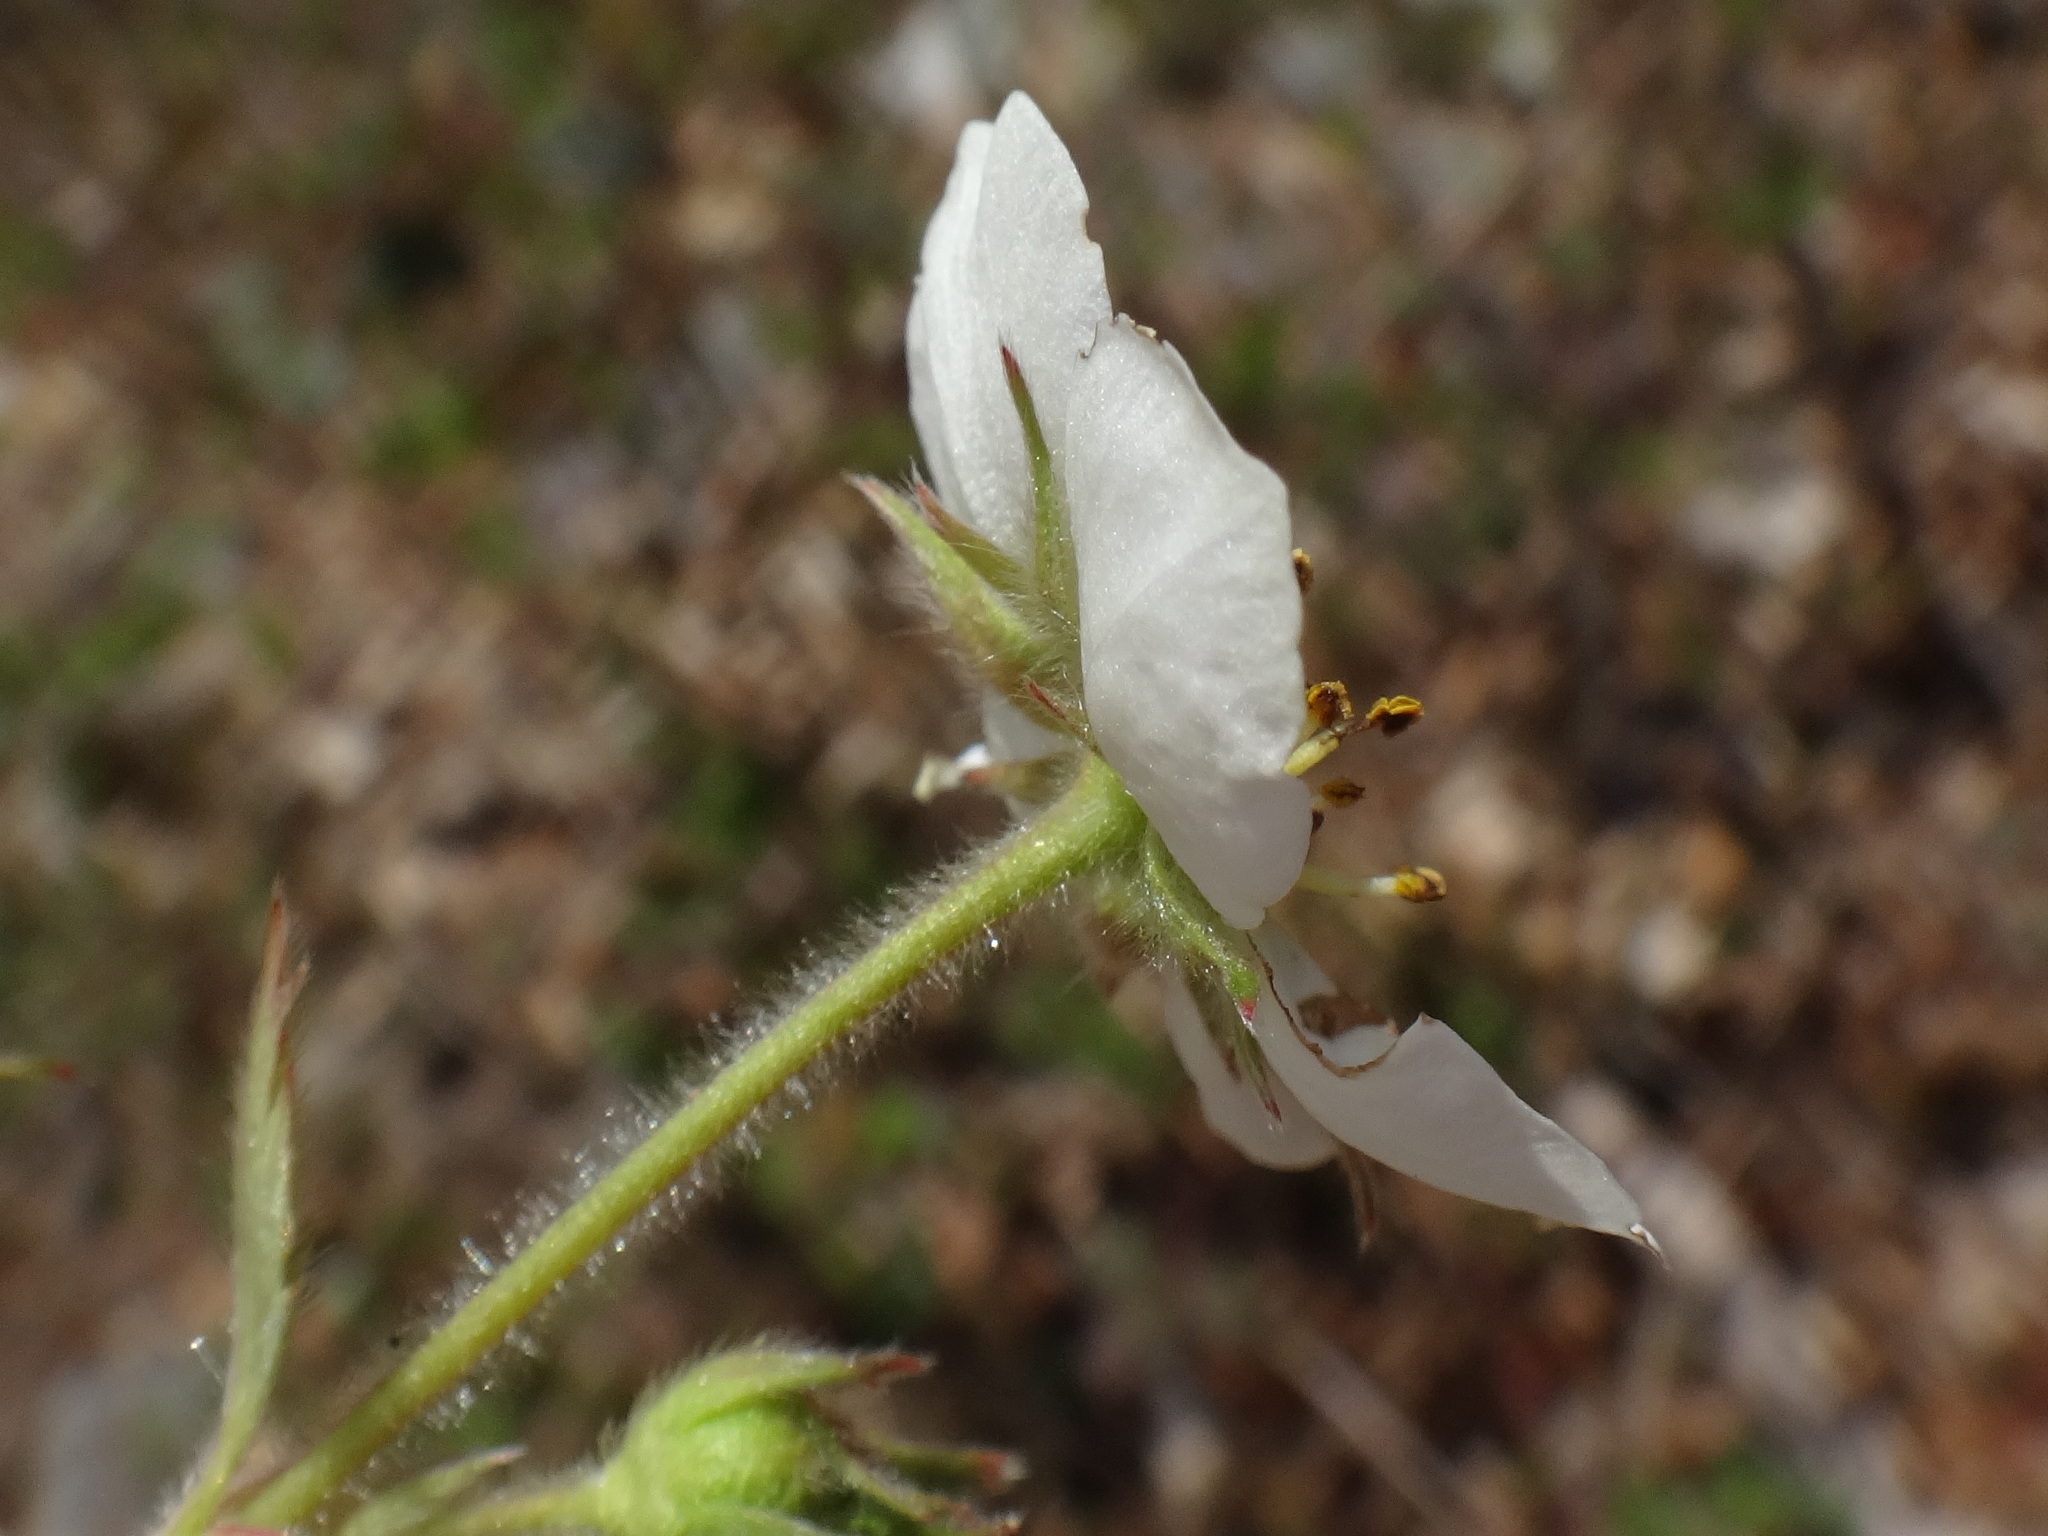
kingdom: Plantae
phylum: Tracheophyta
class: Magnoliopsida
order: Rosales
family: Rosaceae
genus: Fragaria
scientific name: Fragaria moschata
